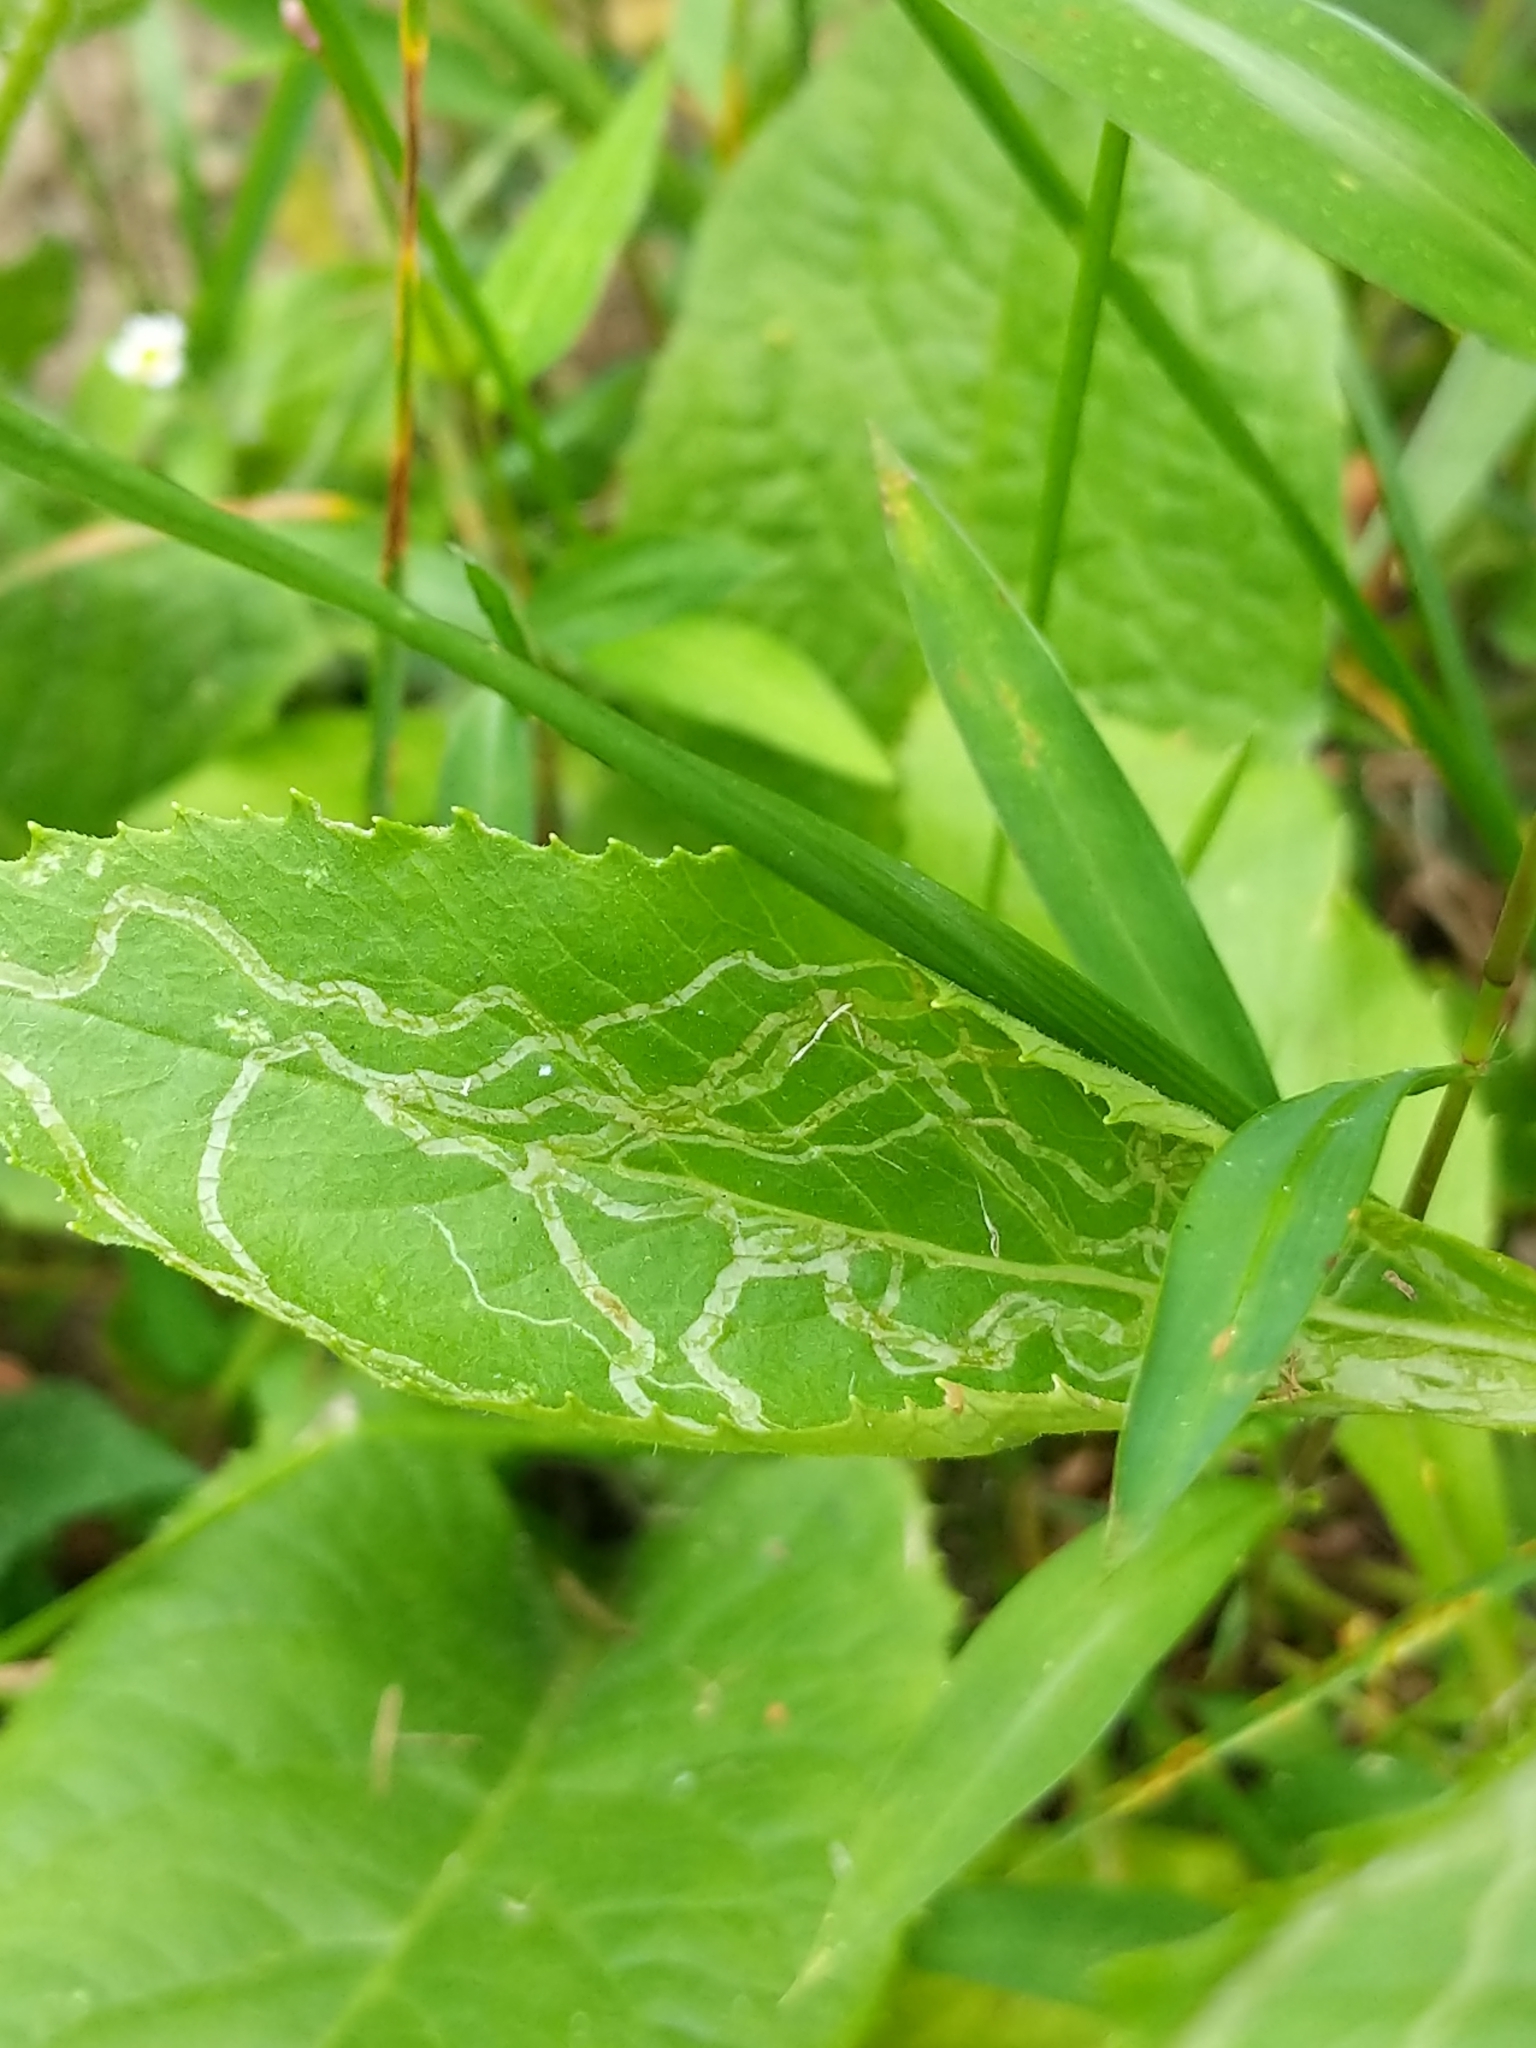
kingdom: Animalia
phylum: Arthropoda
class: Insecta
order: Lepidoptera
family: Gracillariidae
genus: Phyllocnistis
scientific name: Phyllocnistis insignis
